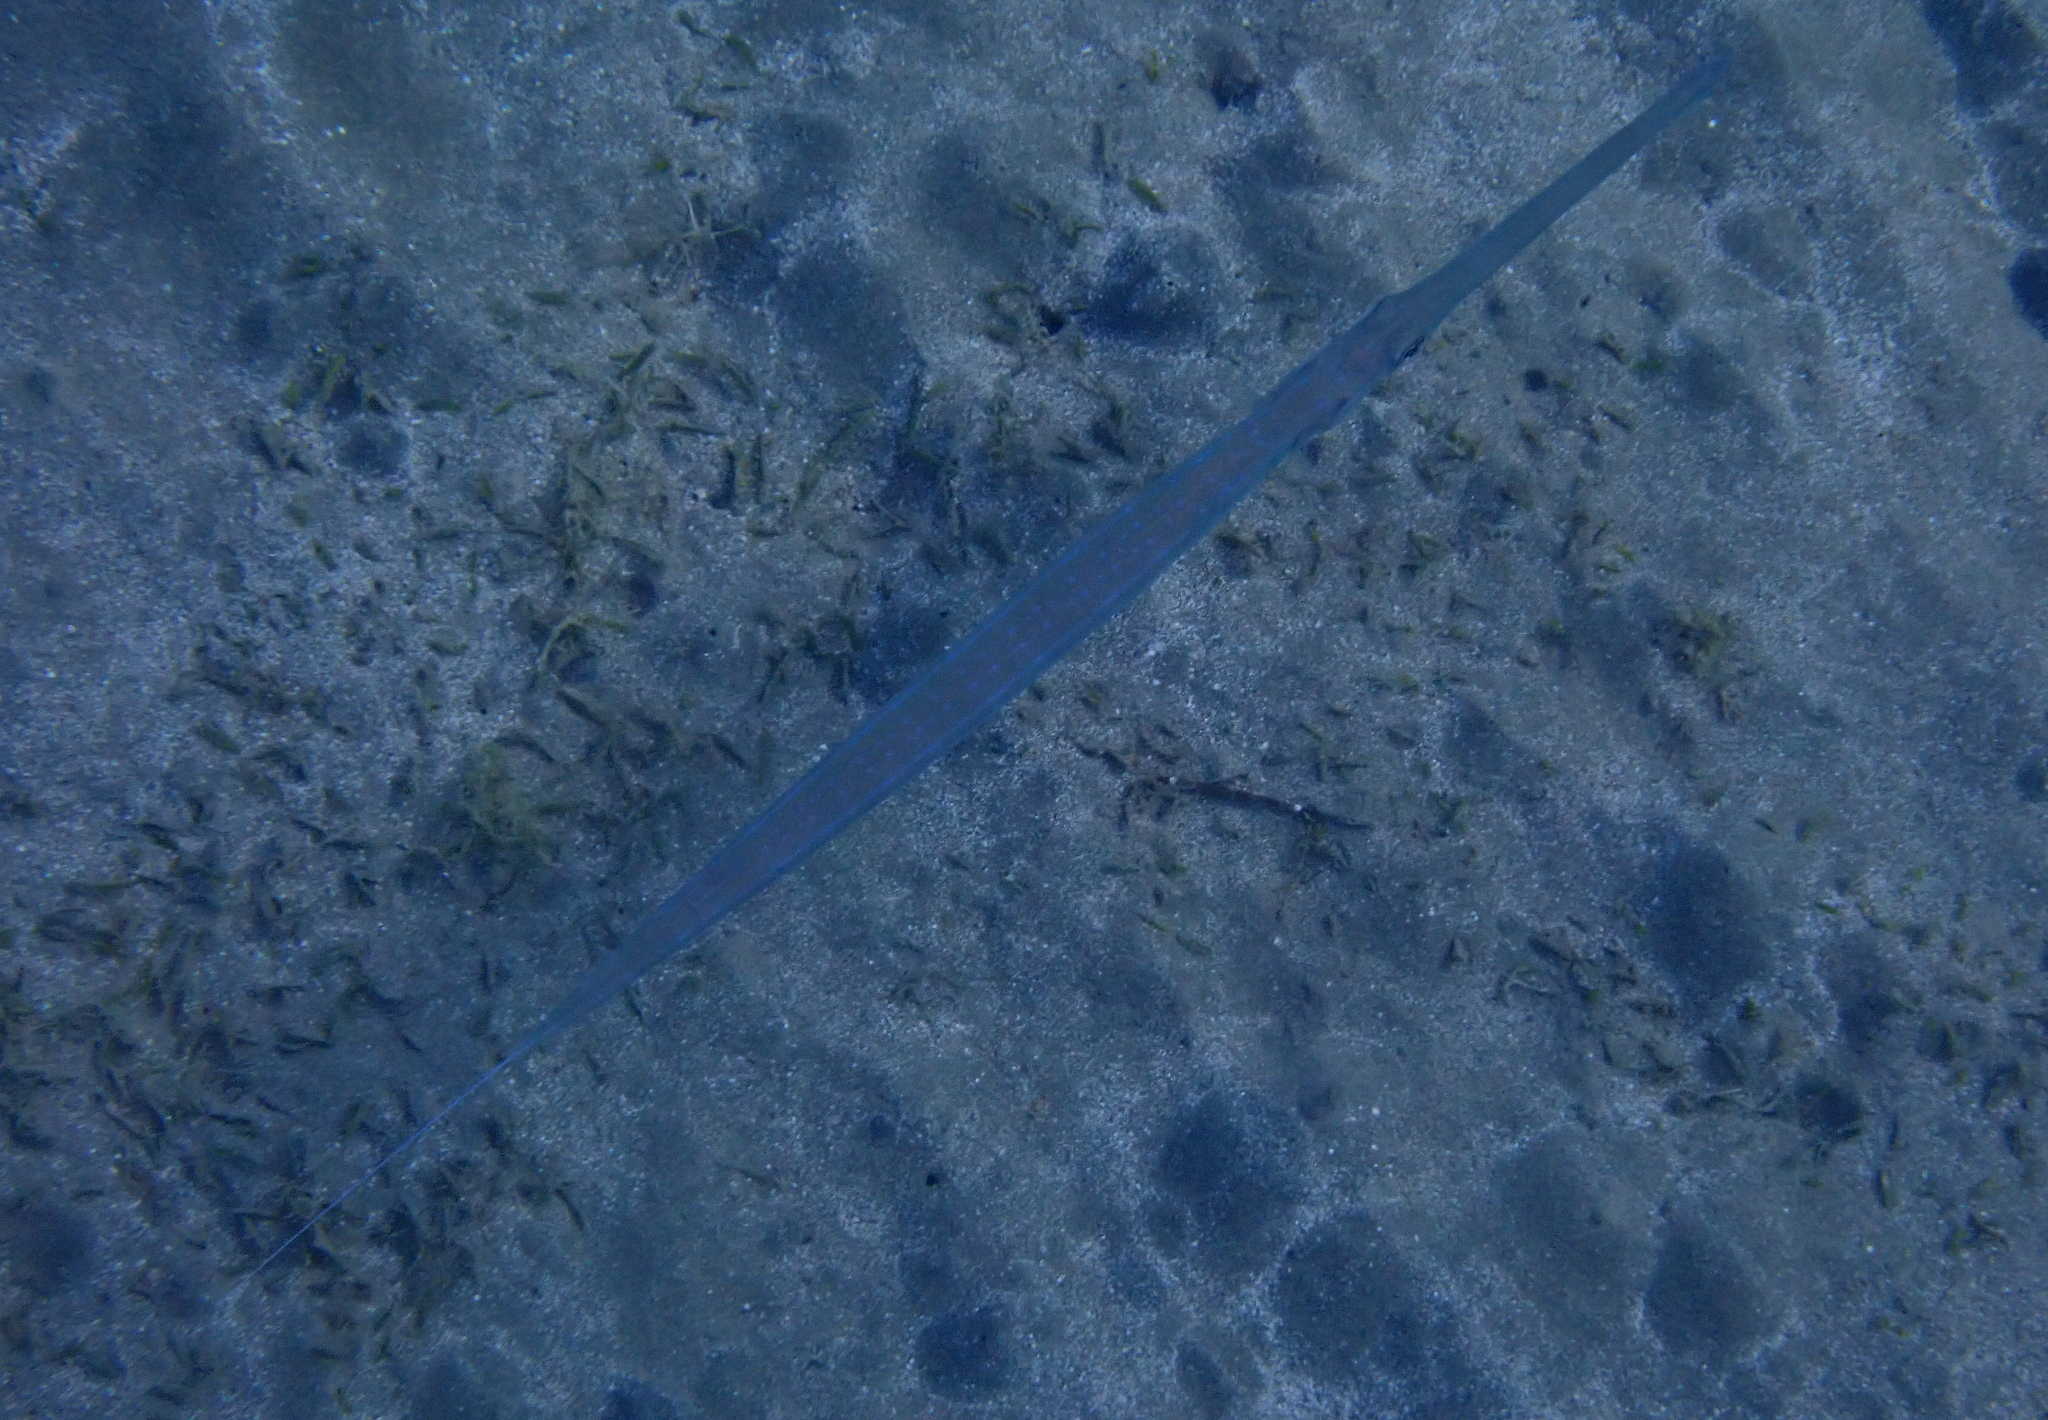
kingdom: Animalia
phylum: Chordata
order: Syngnathiformes
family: Fistulariidae
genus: Fistularia
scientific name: Fistularia commersonii
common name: Bluespotted cornetfish
